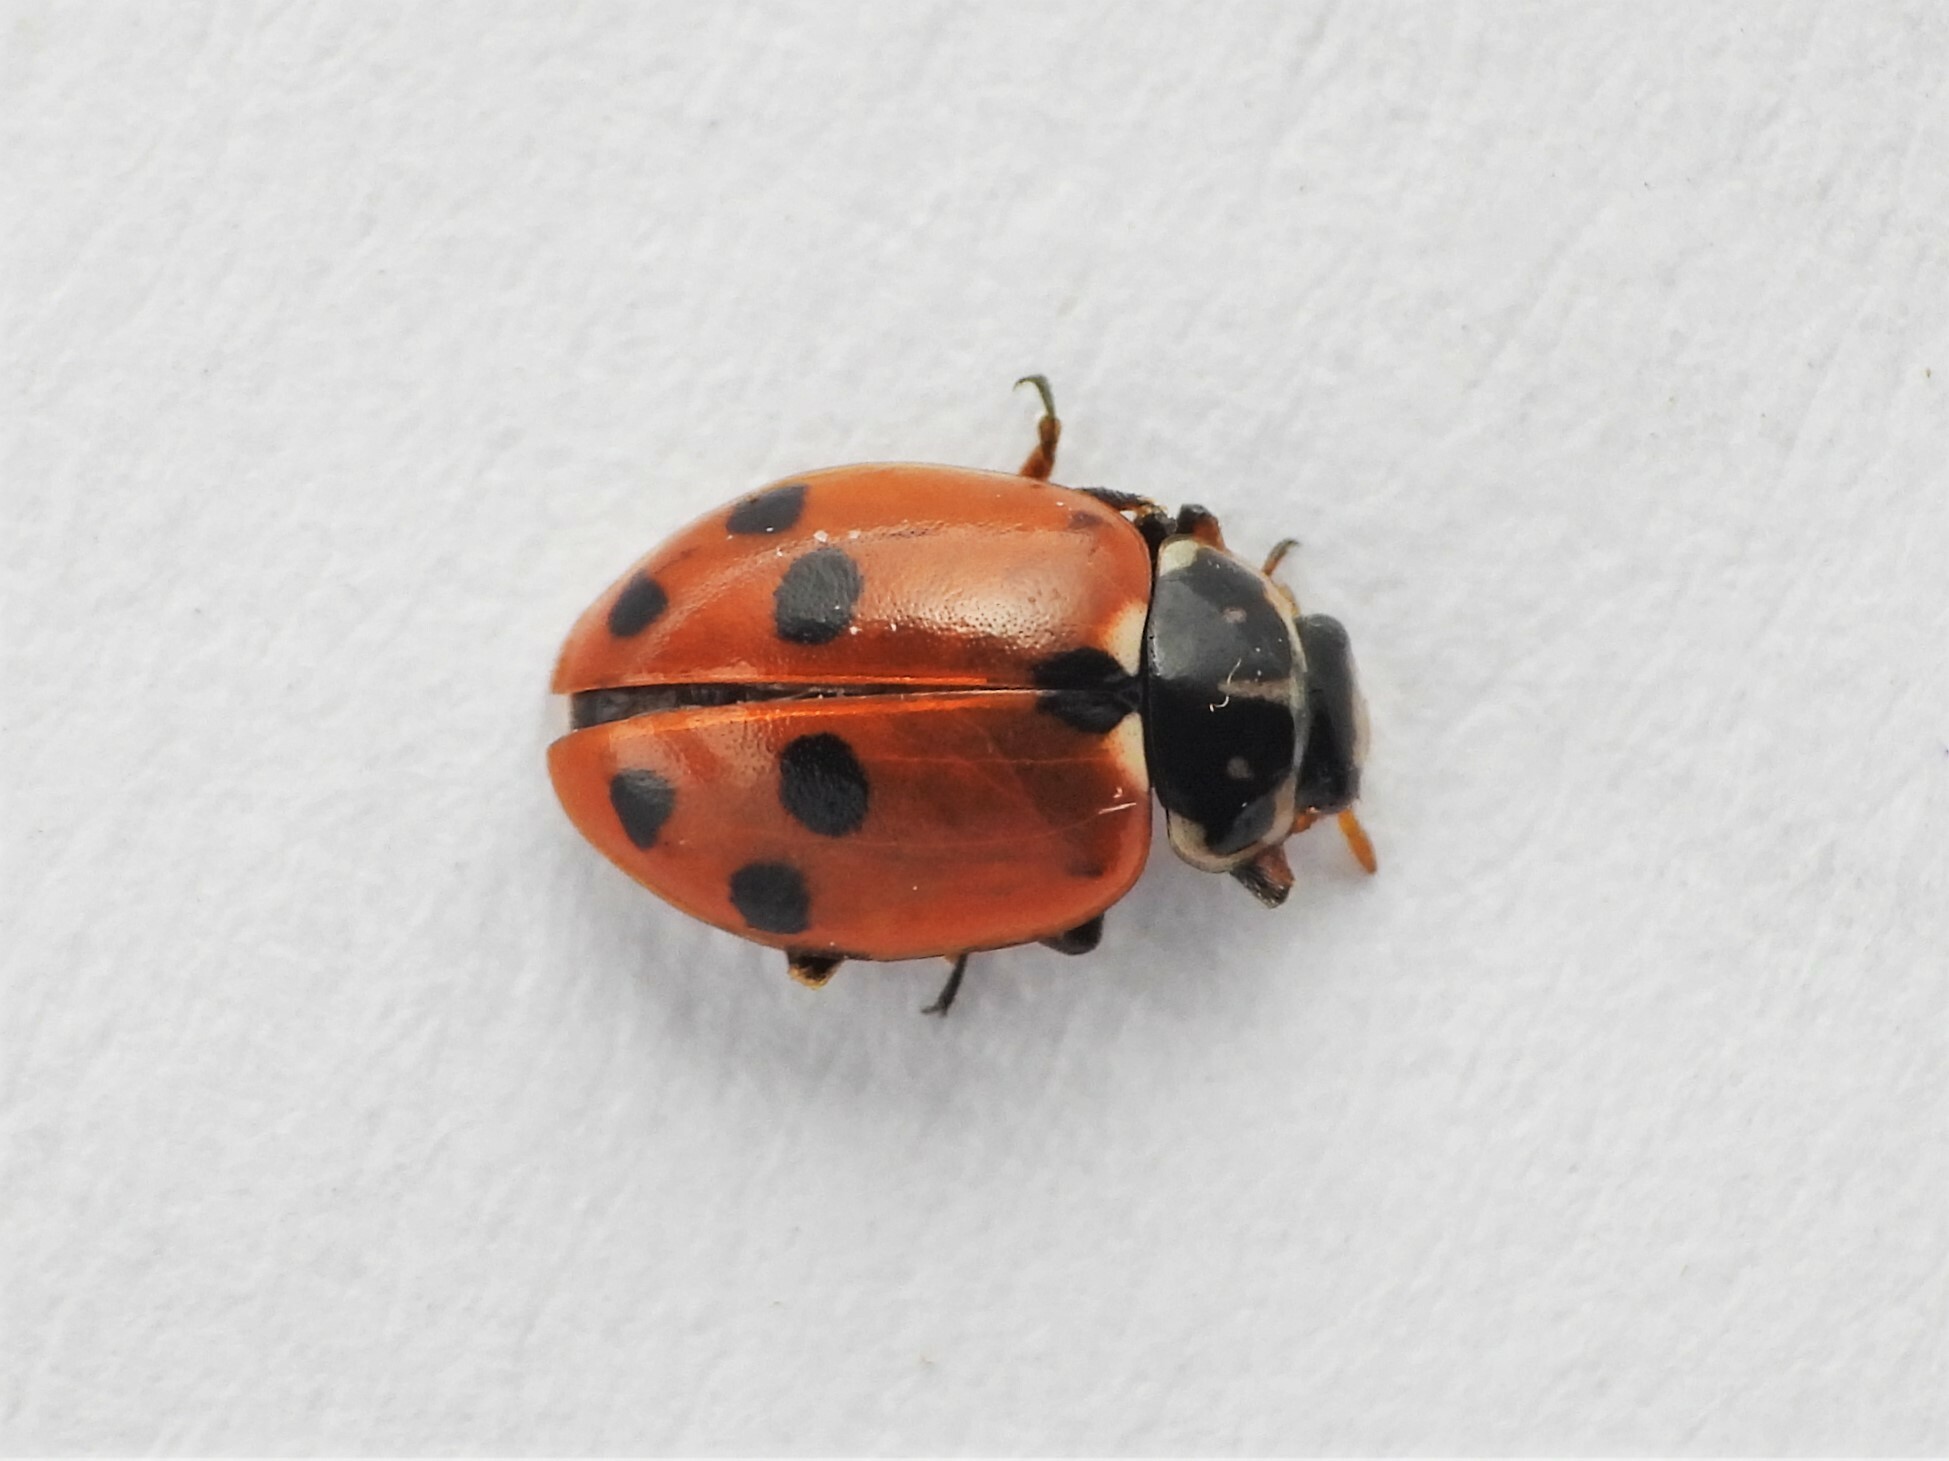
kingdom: Animalia
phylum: Arthropoda
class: Insecta
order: Coleoptera
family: Coccinellidae
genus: Hippodamia
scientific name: Hippodamia variegata
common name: Ladybird beetle
